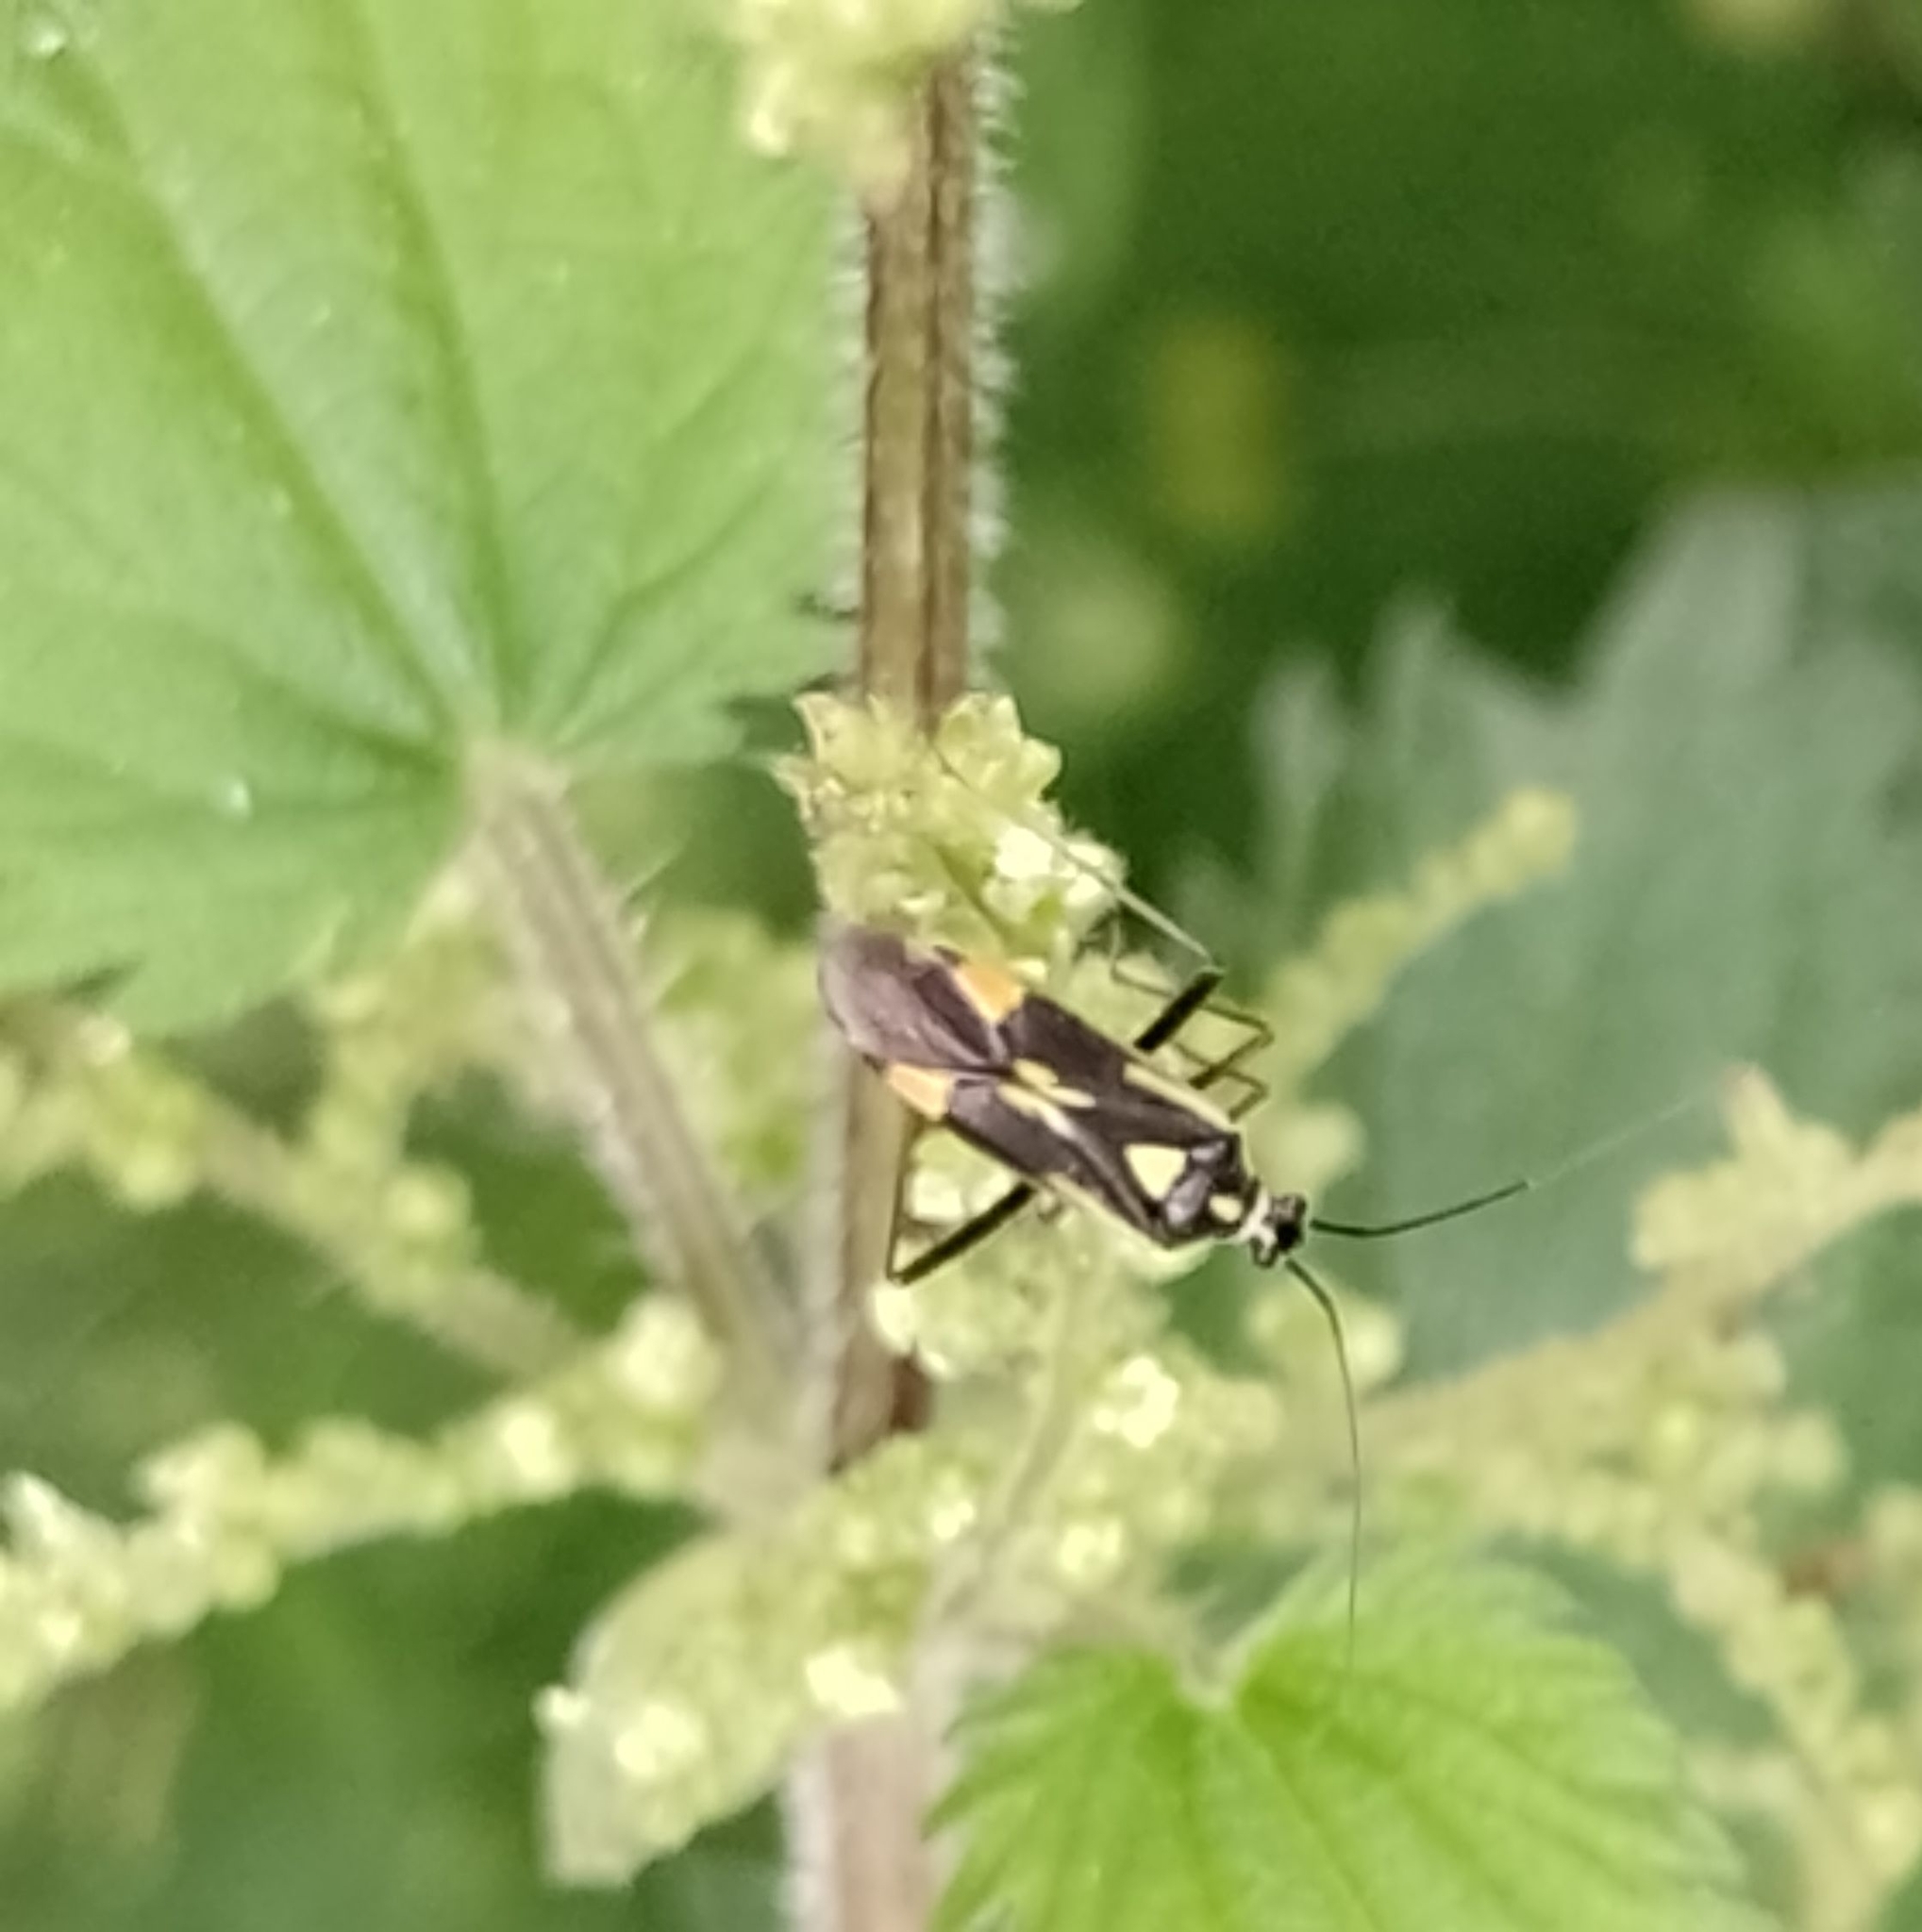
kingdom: Animalia
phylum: Arthropoda
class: Insecta
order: Hemiptera
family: Miridae
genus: Grypocoris
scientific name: Grypocoris stysi
